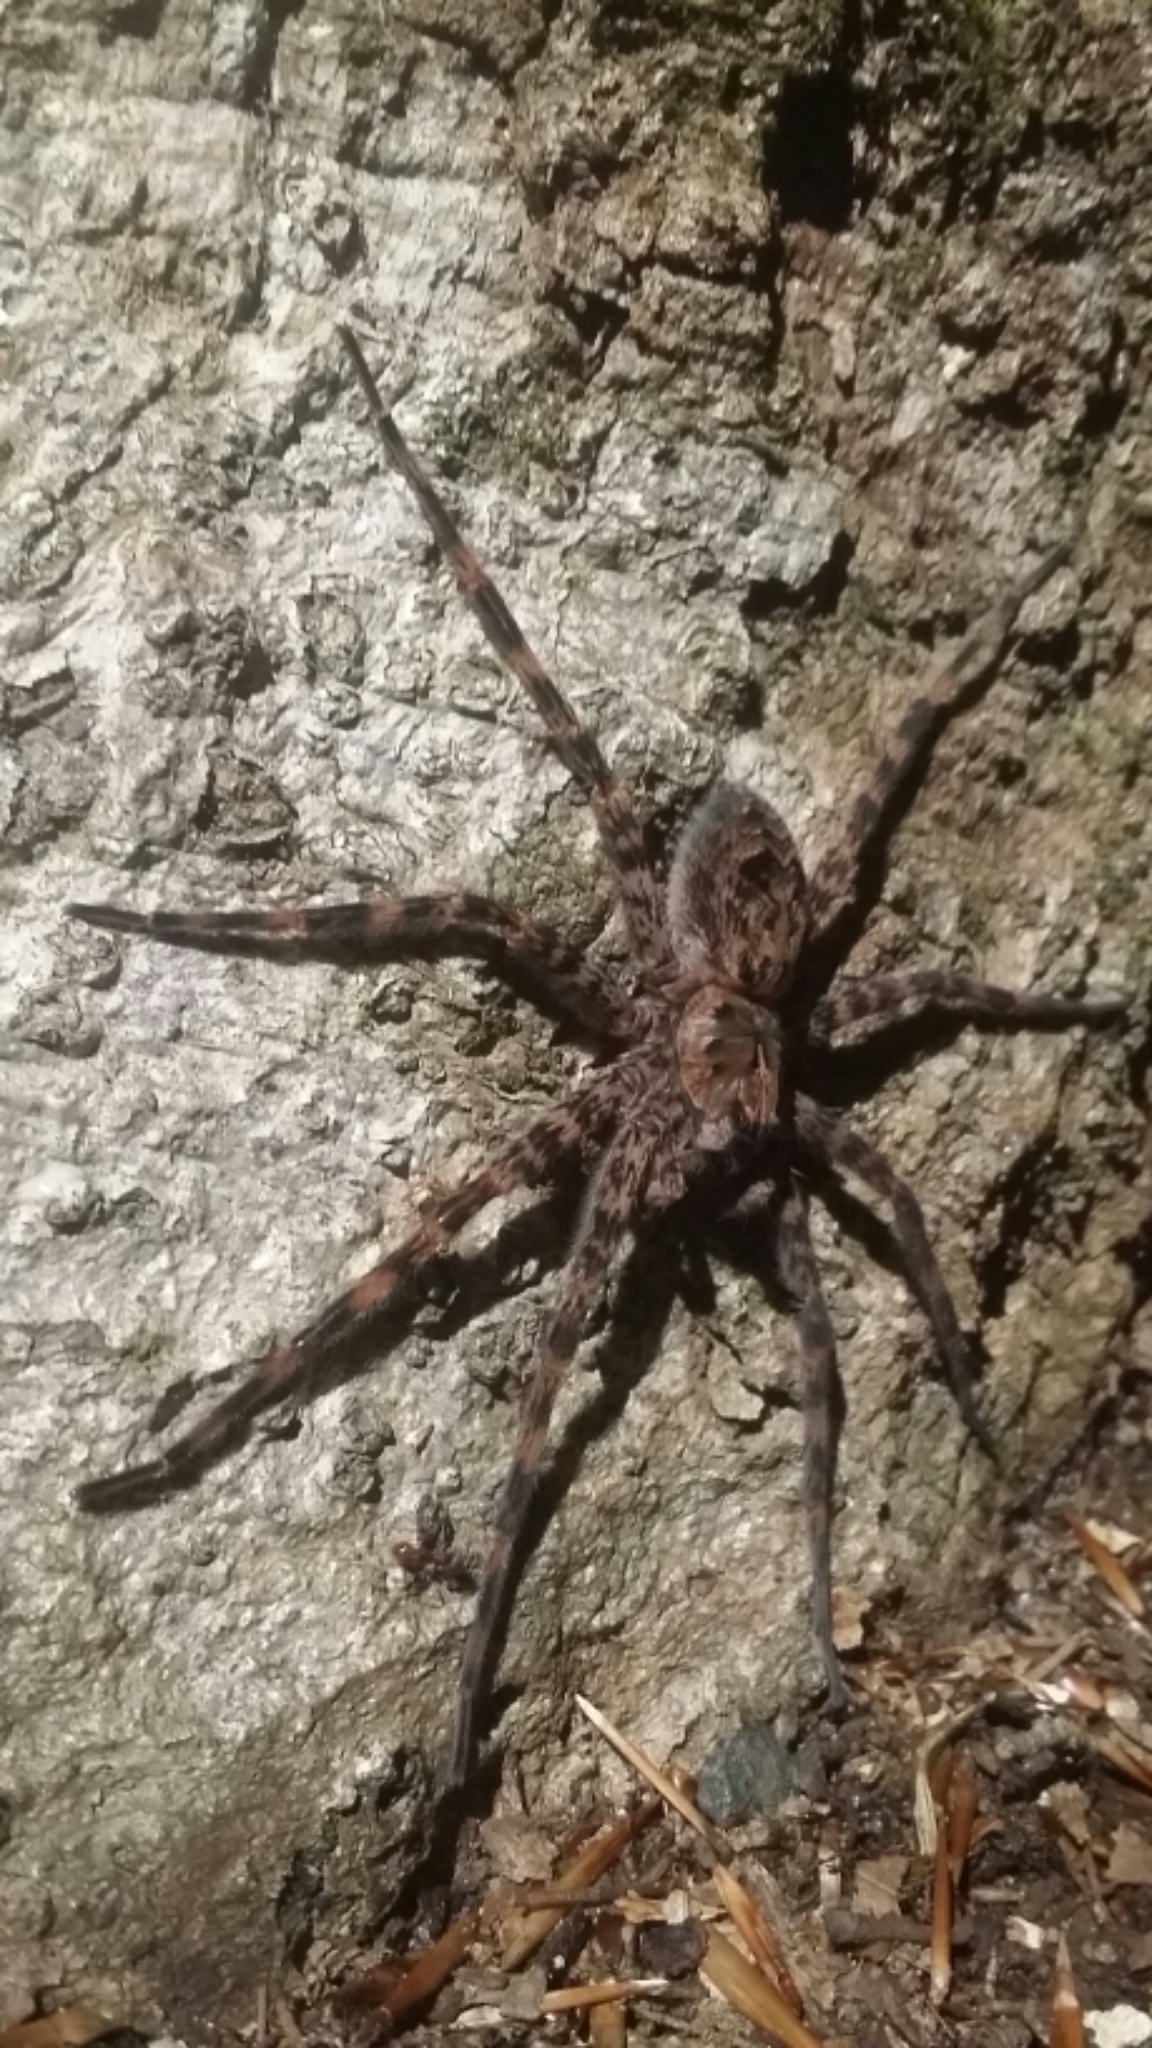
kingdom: Animalia
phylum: Arthropoda
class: Arachnida
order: Araneae
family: Pisauridae
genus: Dolomedes
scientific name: Dolomedes tenebrosus
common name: Dark fishing spider
